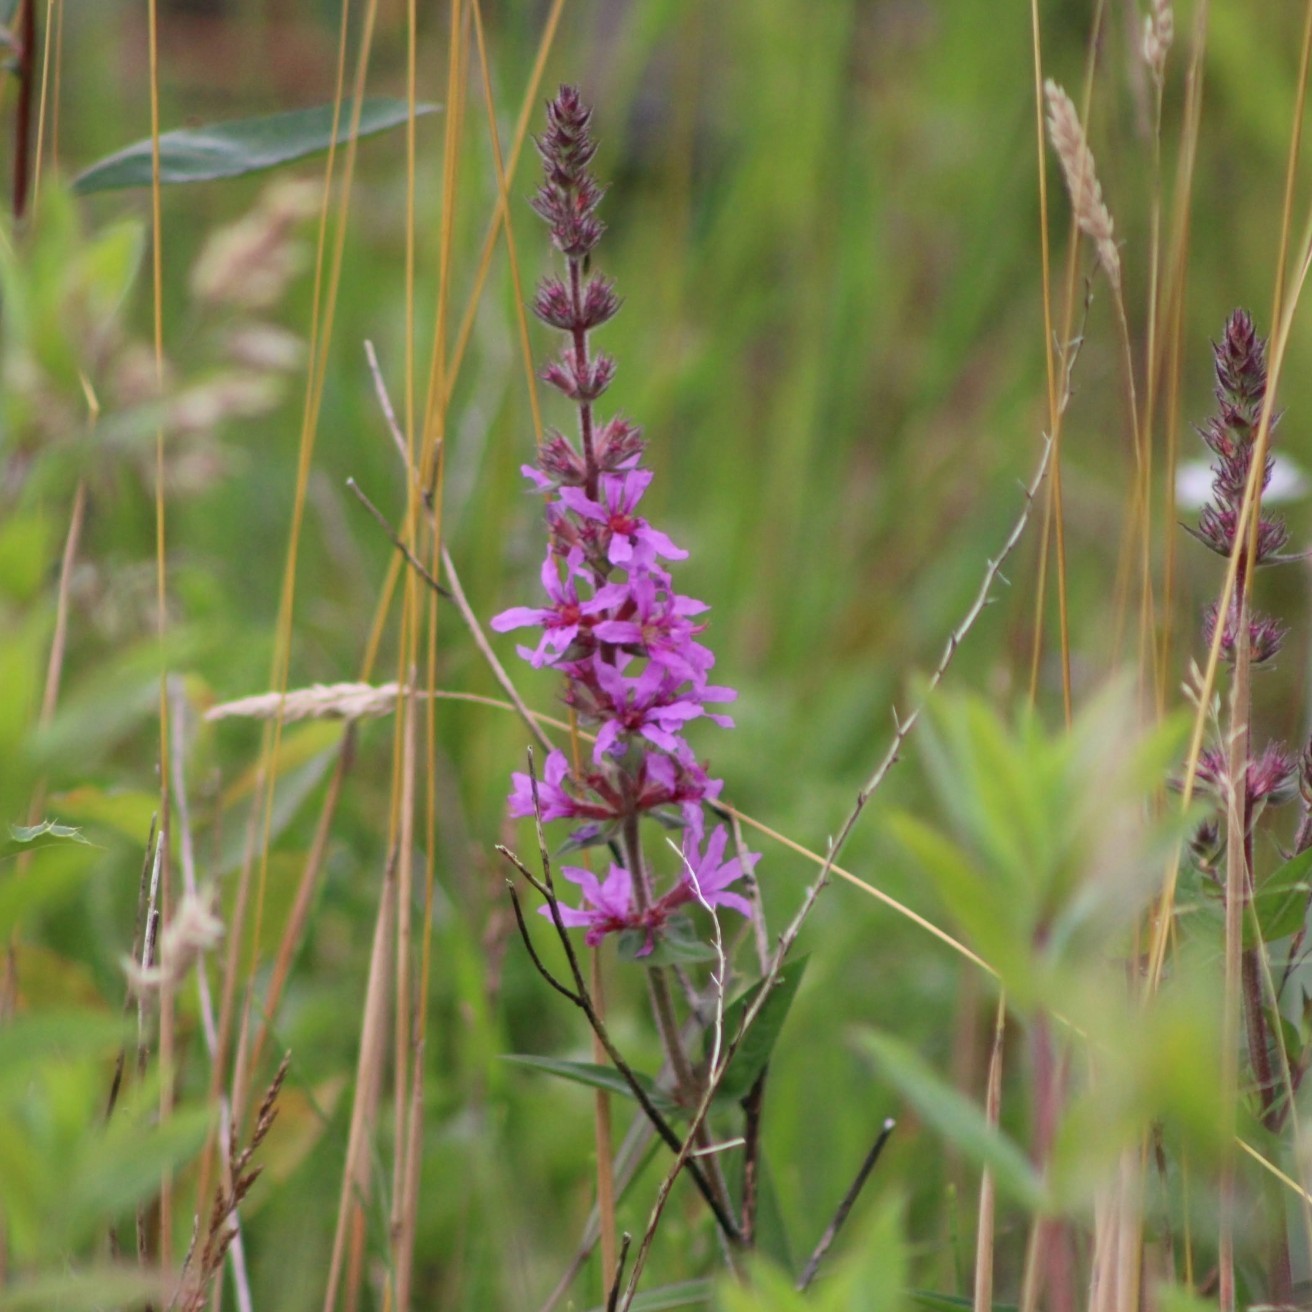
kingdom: Plantae
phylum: Tracheophyta
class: Magnoliopsida
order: Myrtales
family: Lythraceae
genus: Lythrum
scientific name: Lythrum salicaria
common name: Purple loosestrife
